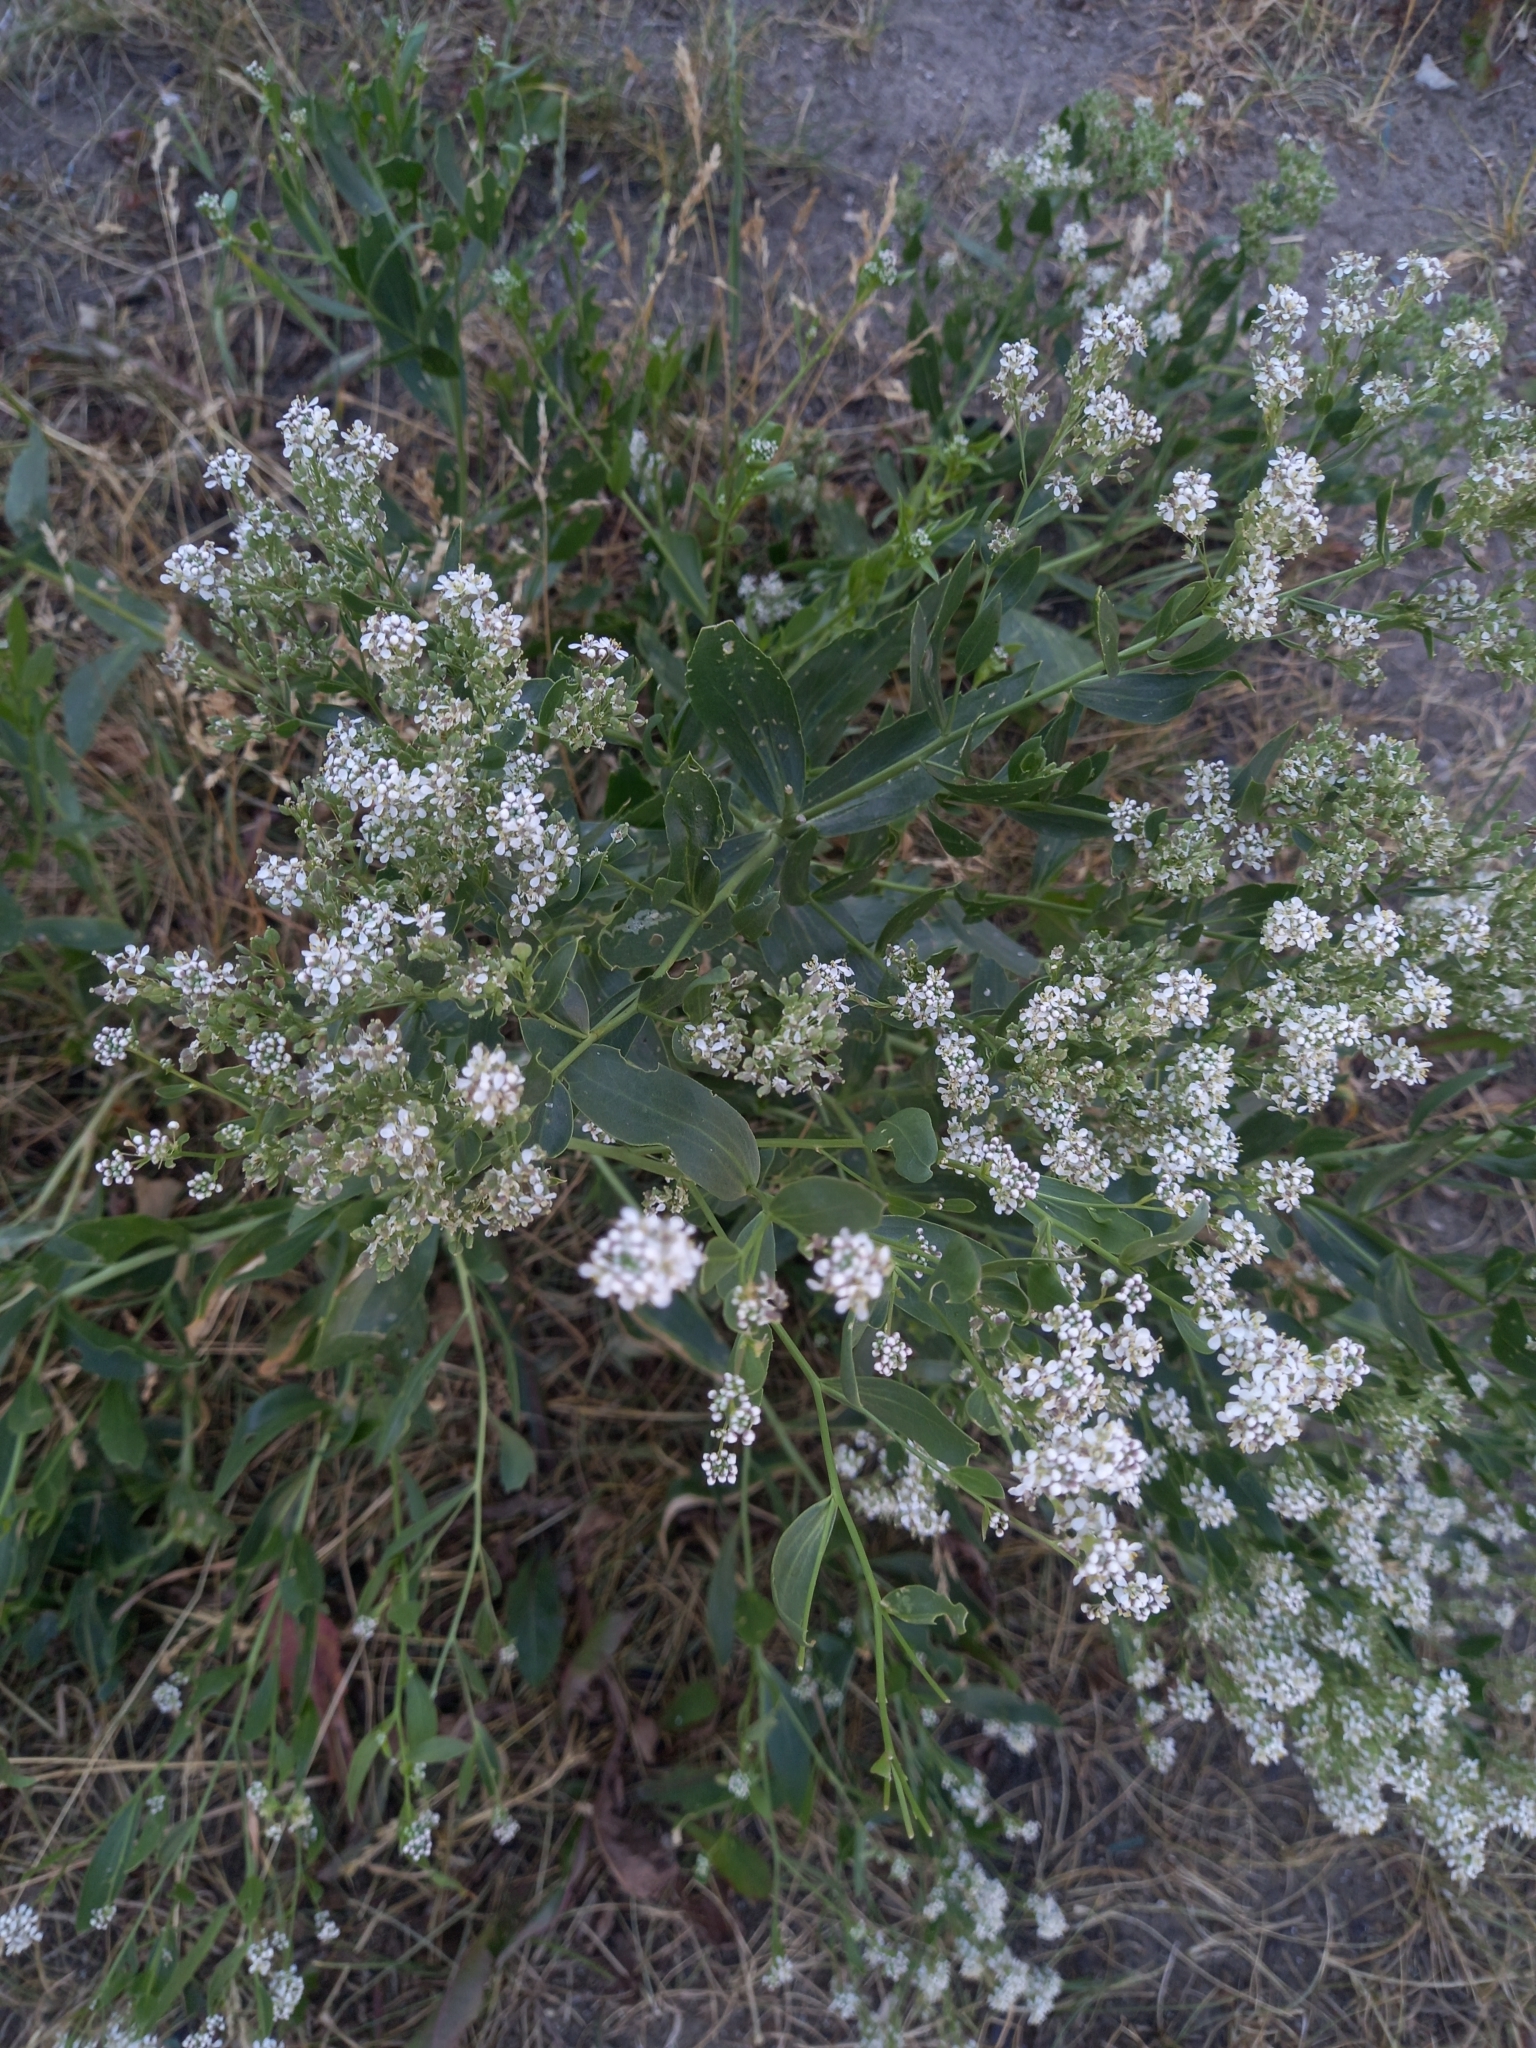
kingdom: Plantae
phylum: Tracheophyta
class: Magnoliopsida
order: Brassicales
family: Brassicaceae
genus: Lepidium
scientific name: Lepidium latifolium
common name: Dittander
